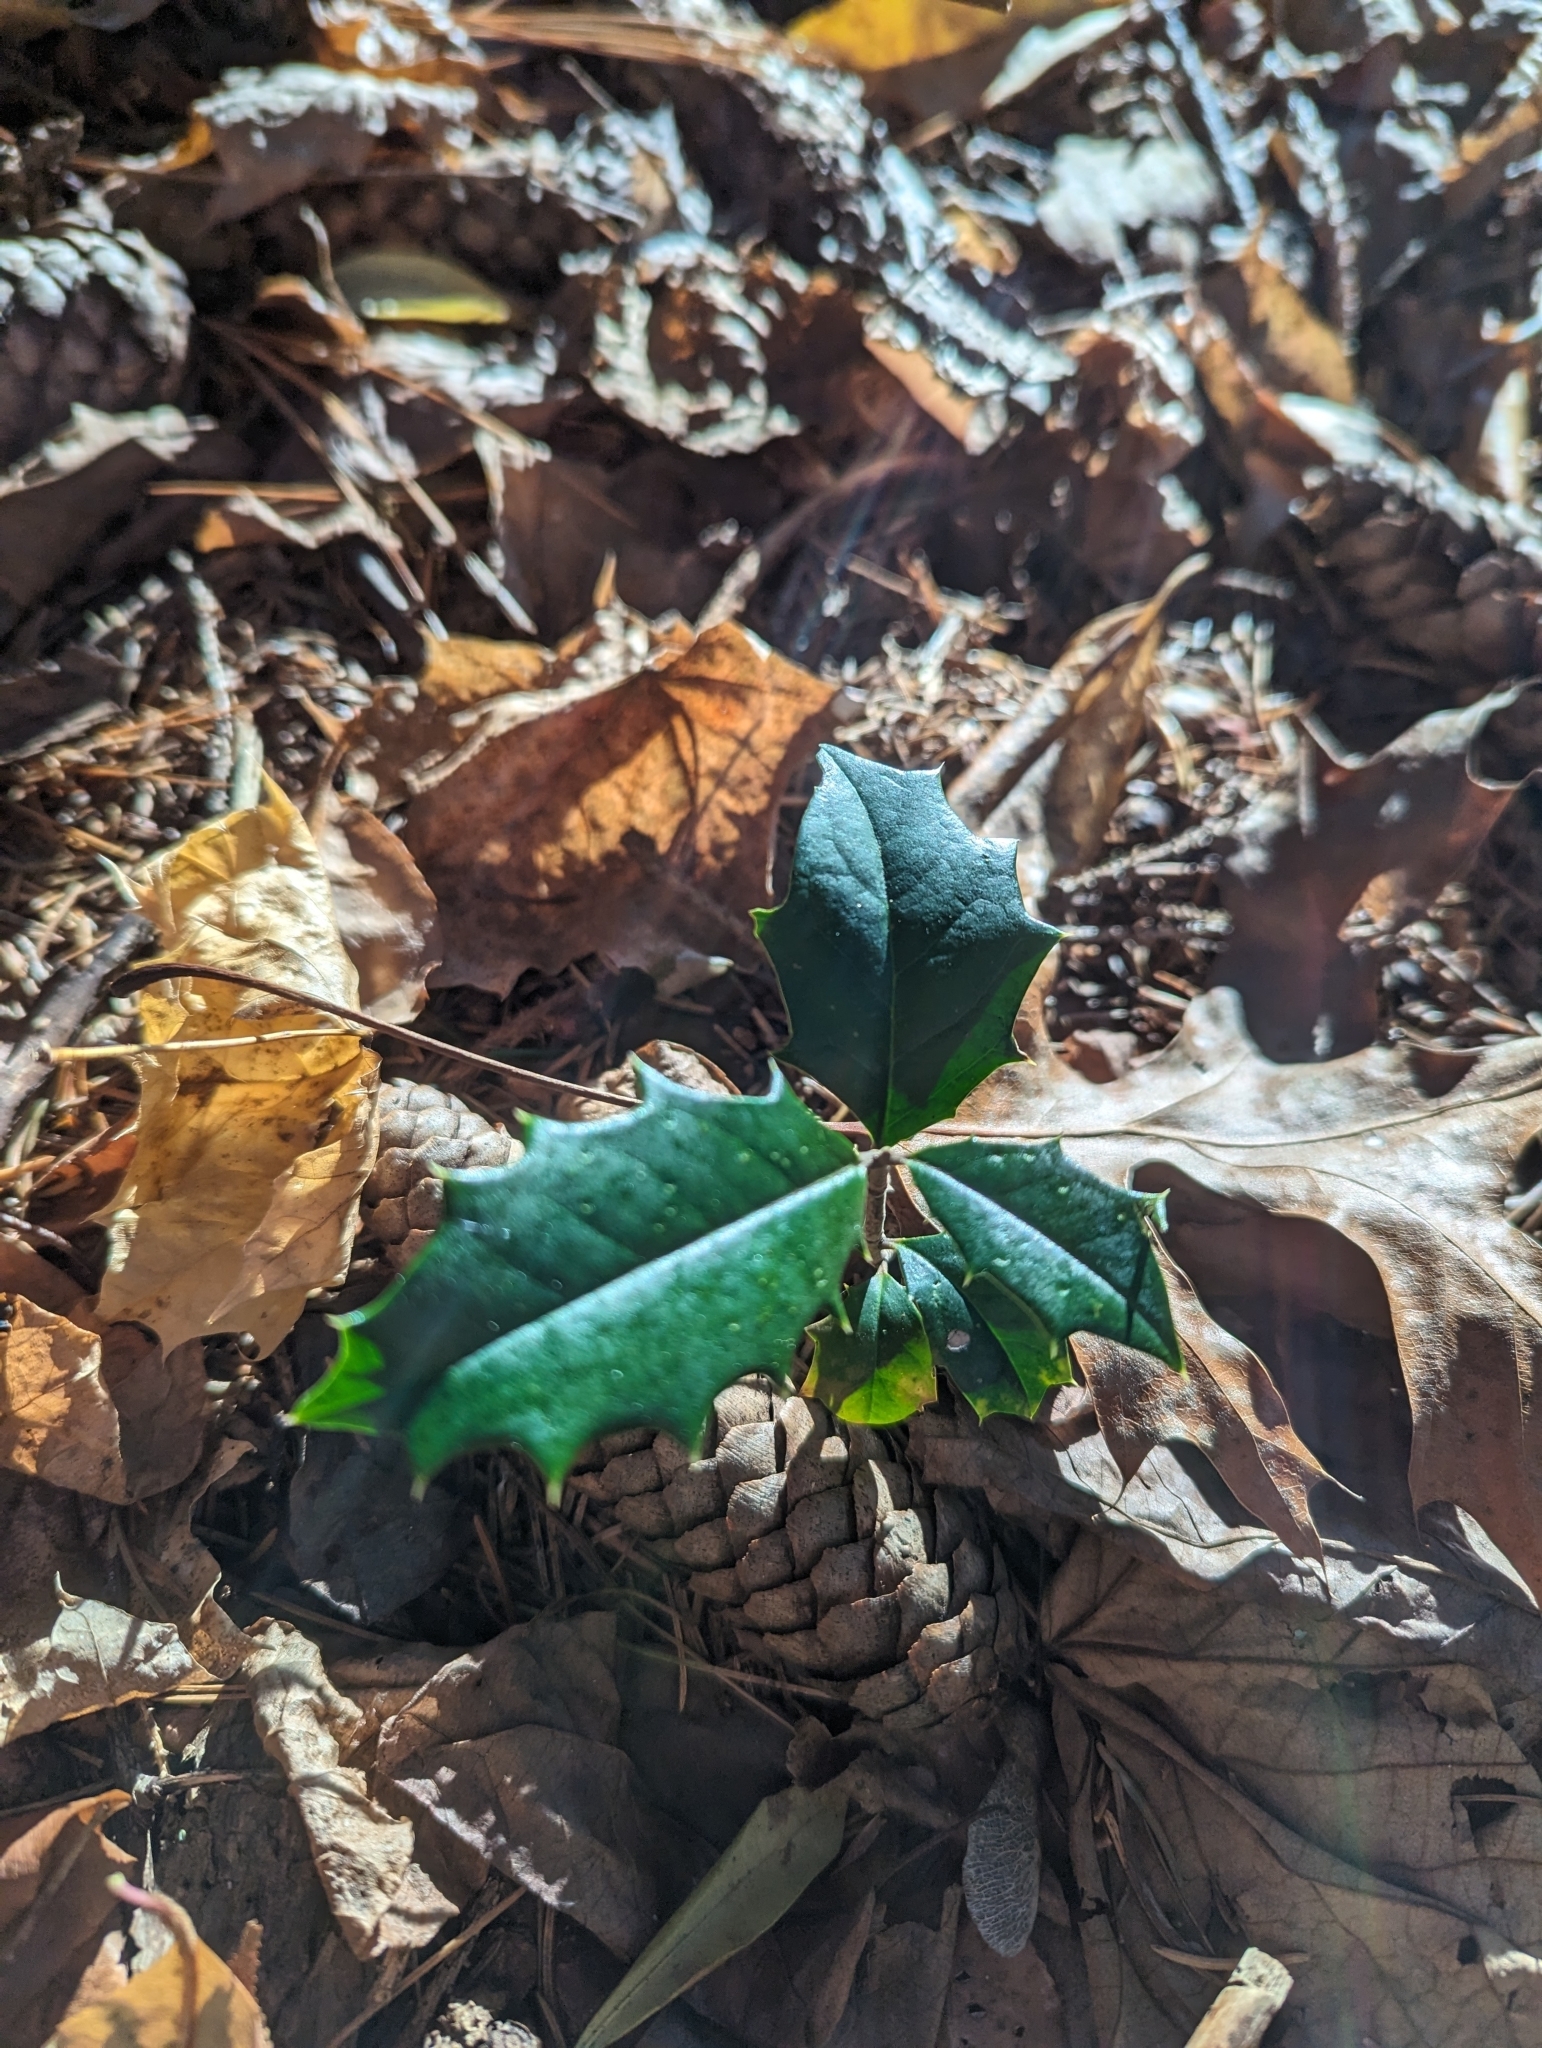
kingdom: Plantae
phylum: Tracheophyta
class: Magnoliopsida
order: Aquifoliales
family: Aquifoliaceae
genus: Ilex
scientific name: Ilex opaca
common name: American holly
